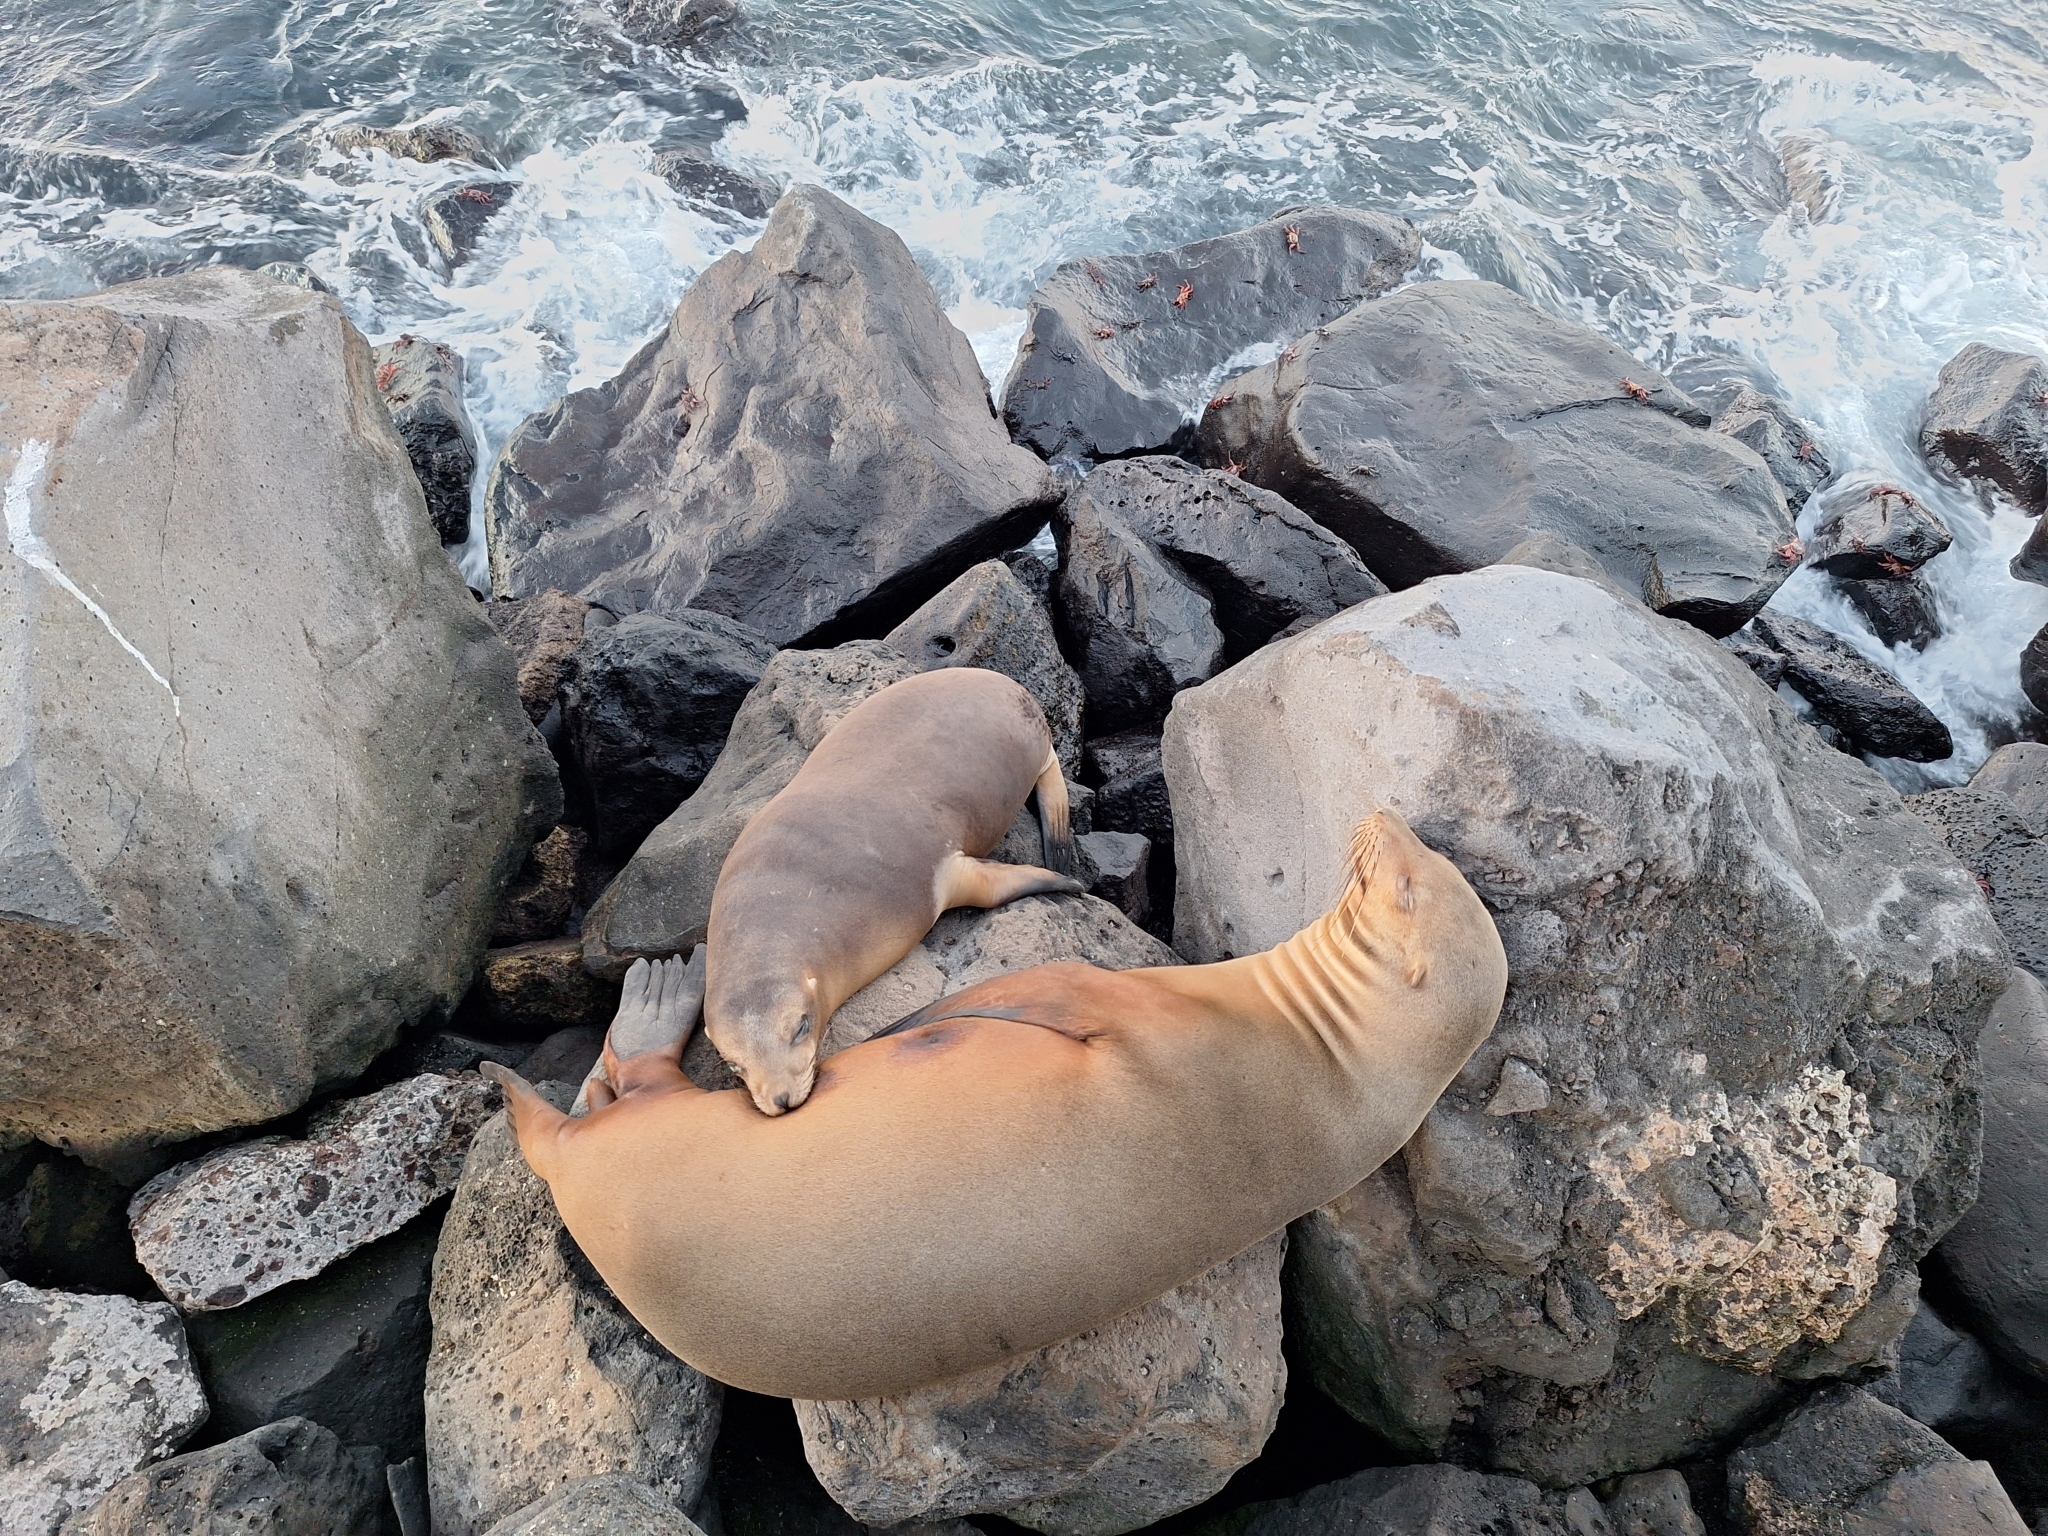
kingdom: Animalia
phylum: Chordata
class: Mammalia
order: Carnivora
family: Otariidae
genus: Zalophus
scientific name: Zalophus wollebaeki
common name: Galapagos sea lion
